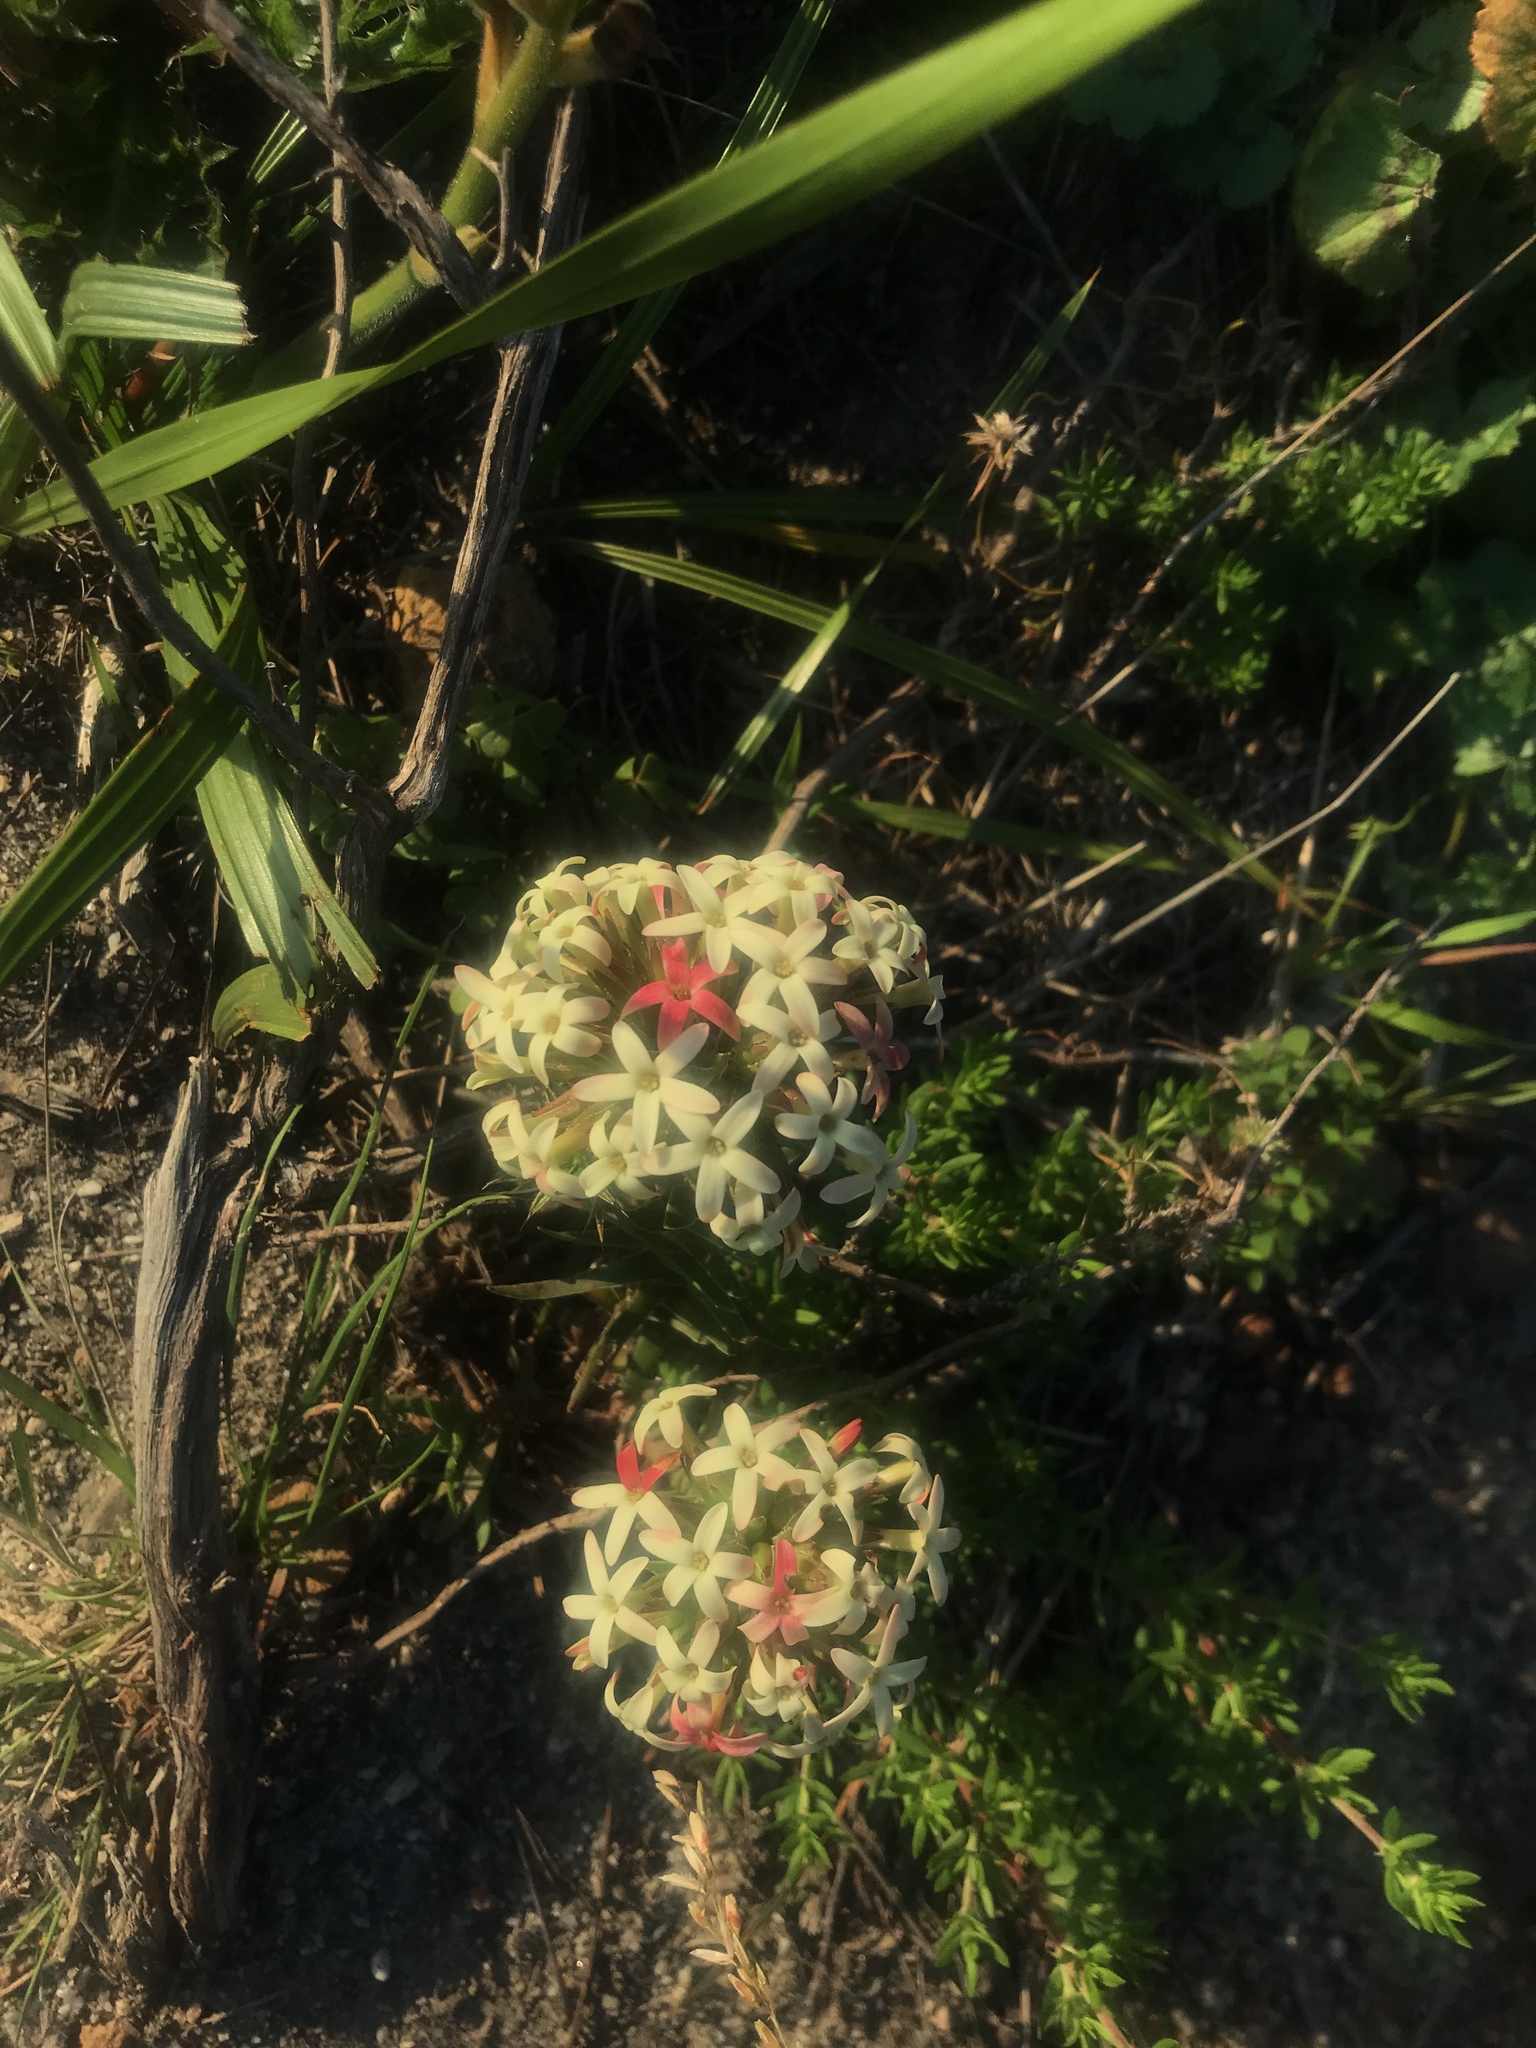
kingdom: Plantae
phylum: Tracheophyta
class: Magnoliopsida
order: Saxifragales
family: Crassulaceae
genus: Crassula
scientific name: Crassula fascicularis
